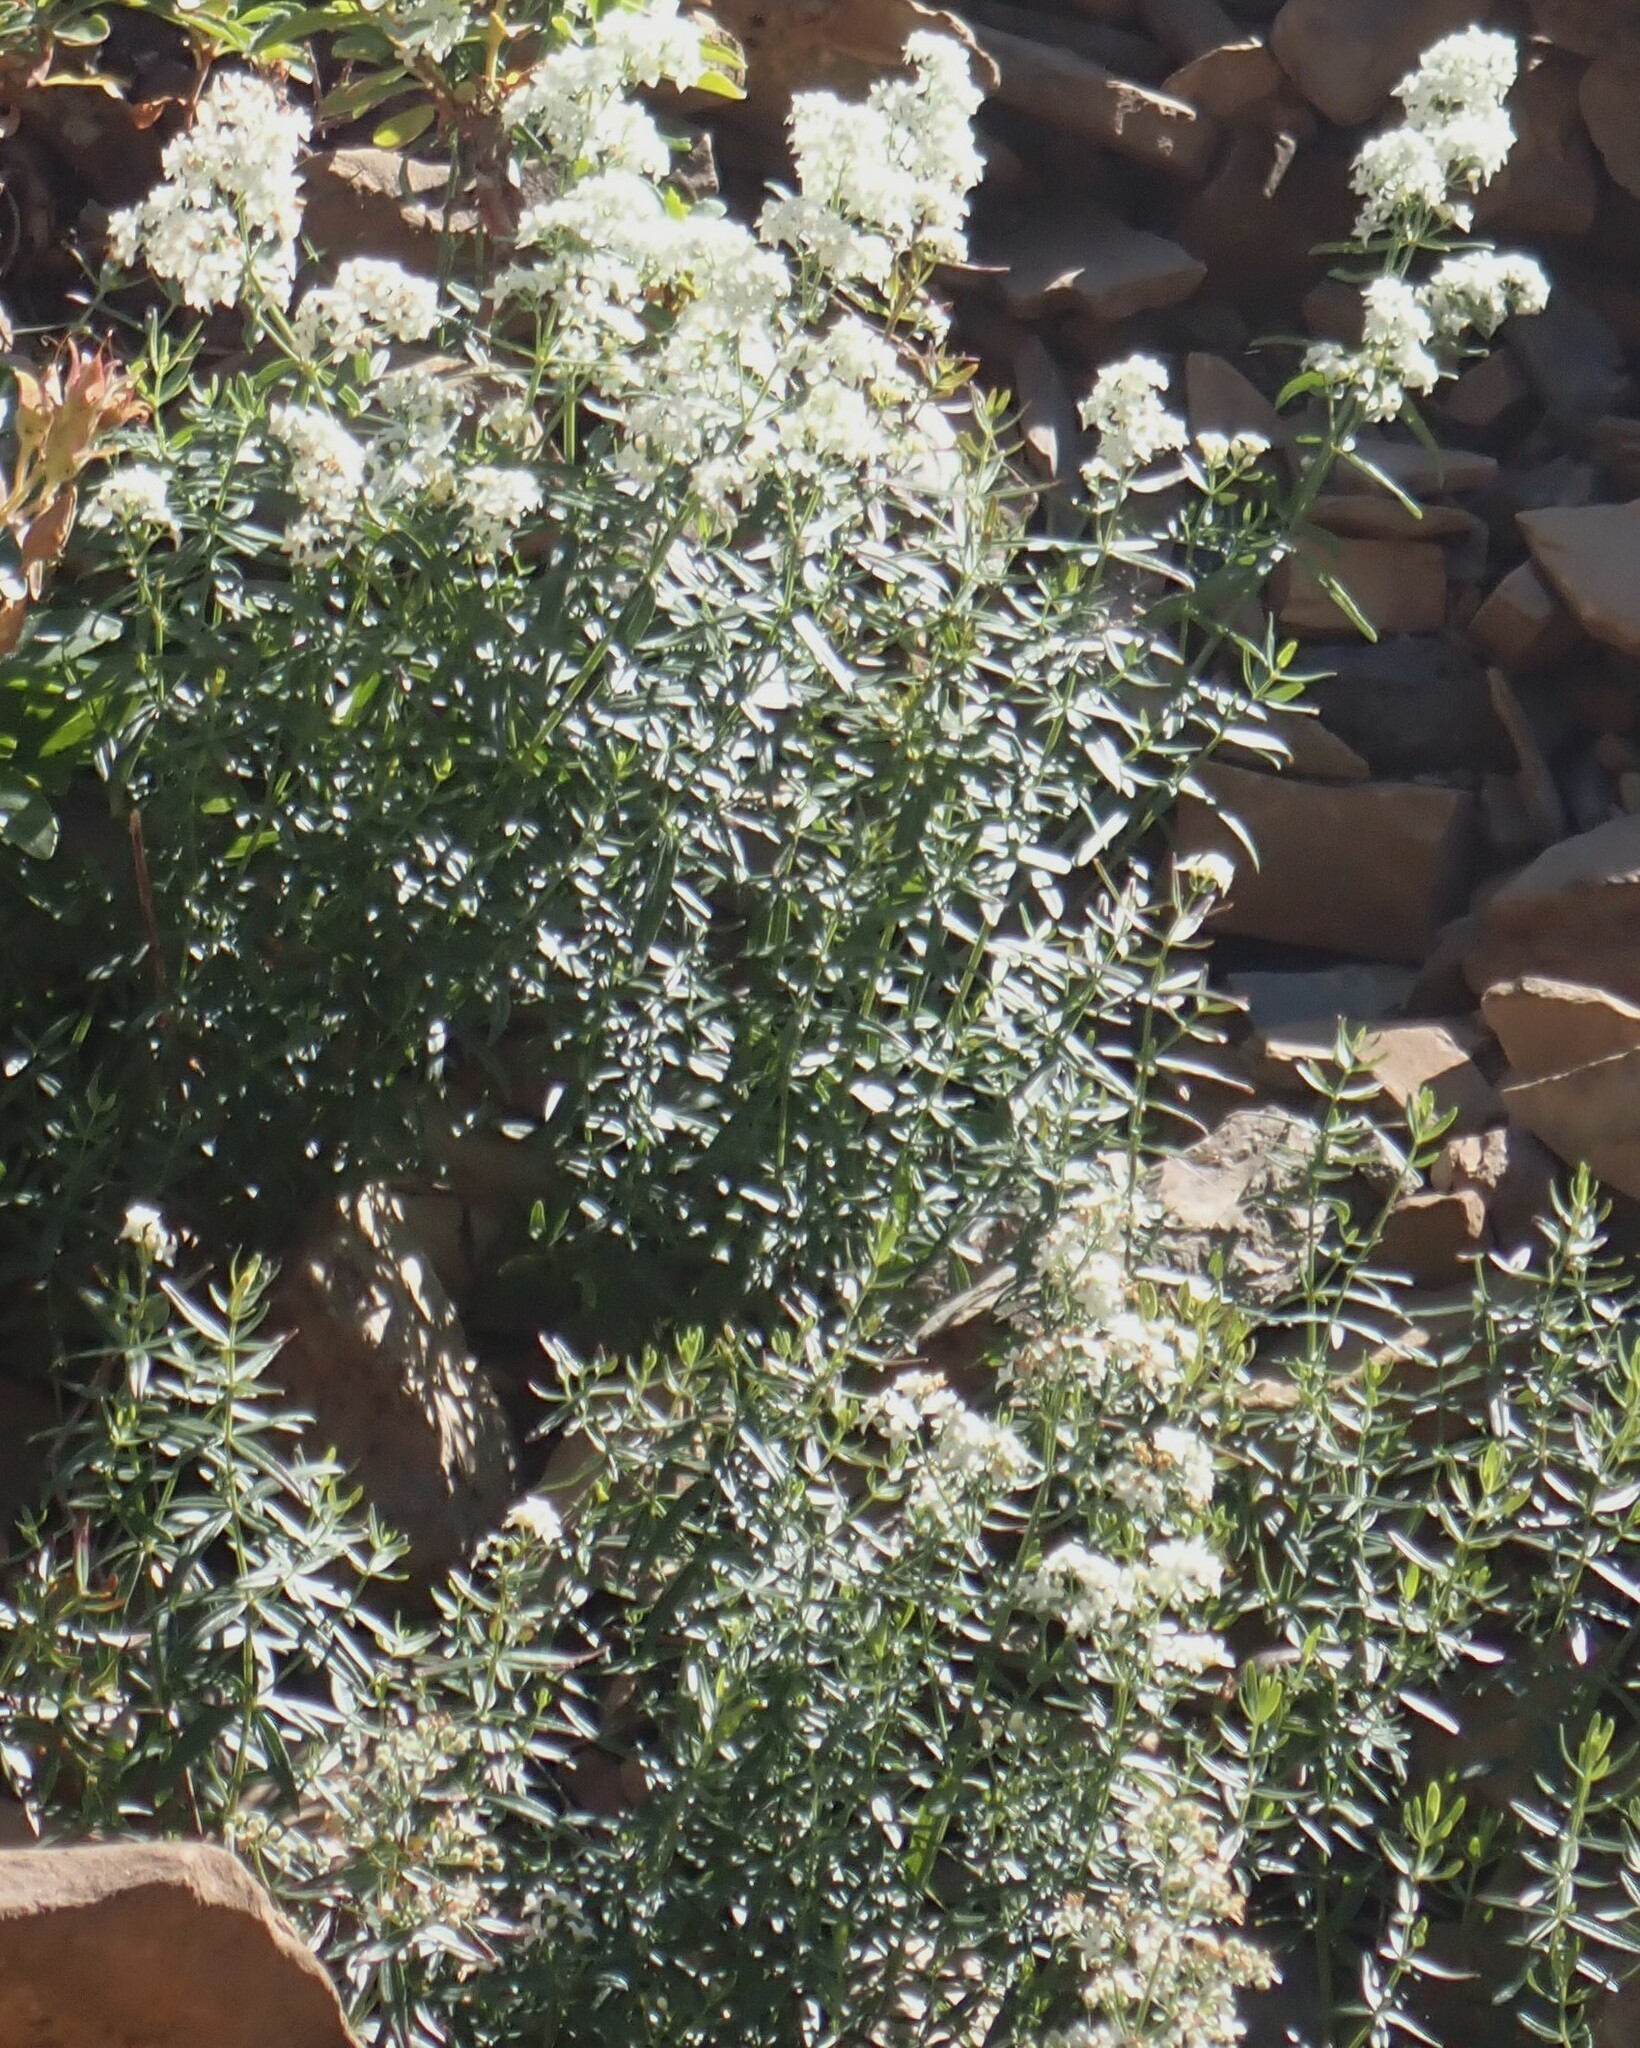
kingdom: Plantae
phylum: Tracheophyta
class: Magnoliopsida
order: Gentianales
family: Rubiaceae
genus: Galium
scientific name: Galium boreale
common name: Northern bedstraw
